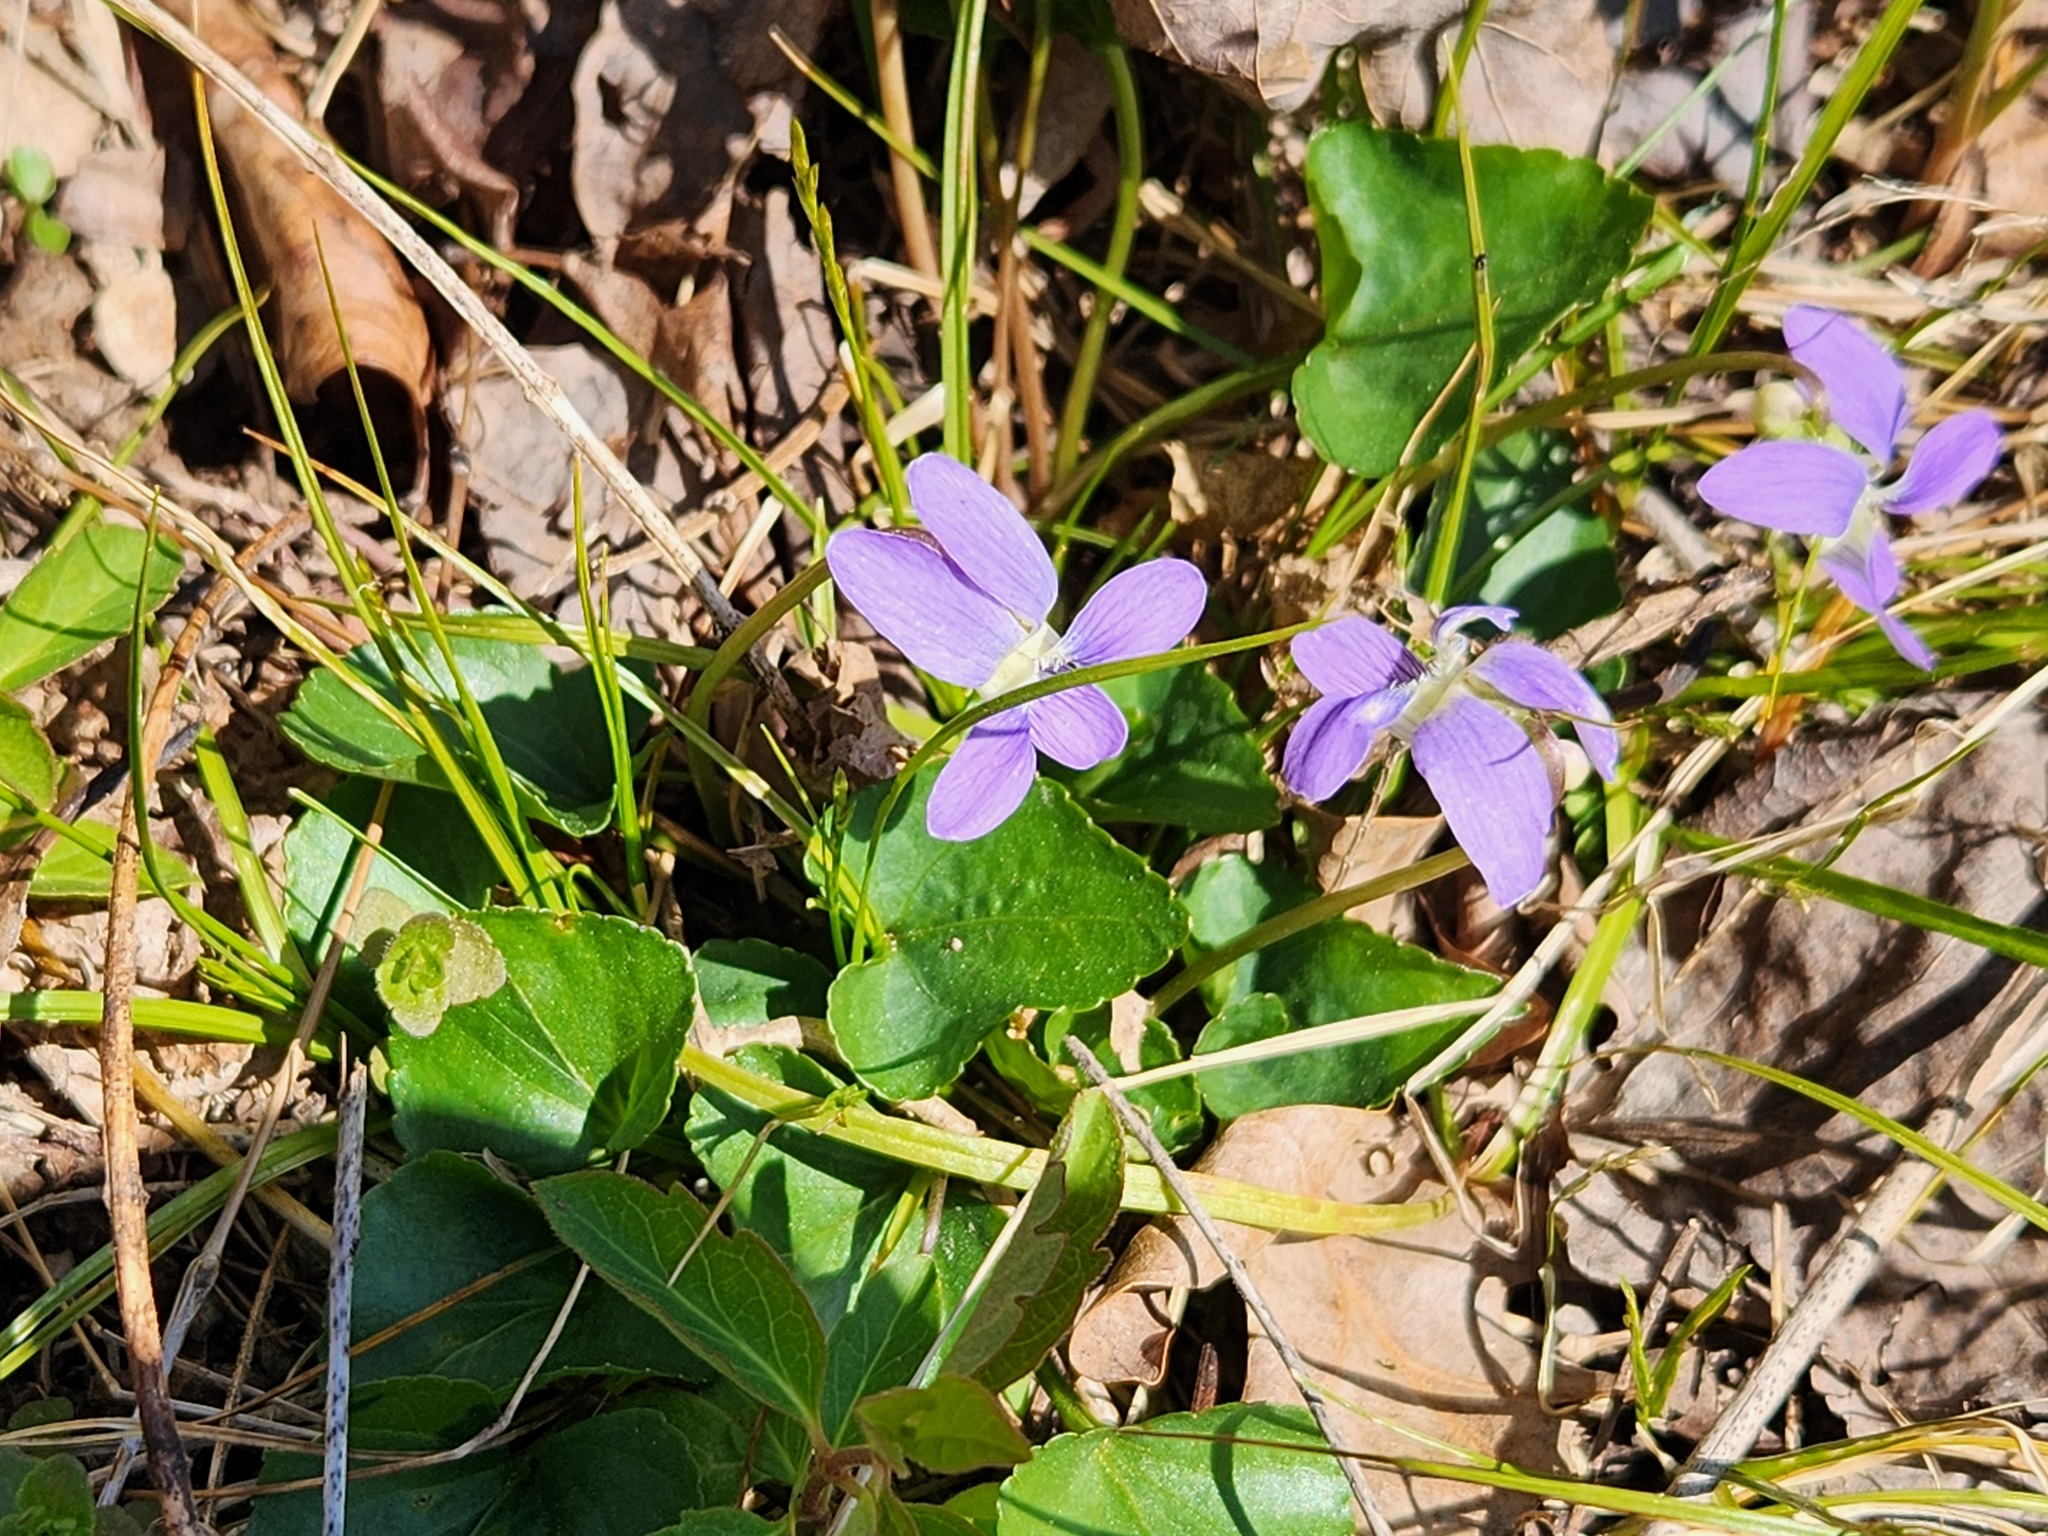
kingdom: Plantae
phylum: Tracheophyta
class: Magnoliopsida
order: Malpighiales
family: Violaceae
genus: Viola
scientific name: Viola sororia
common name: Dooryard violet
